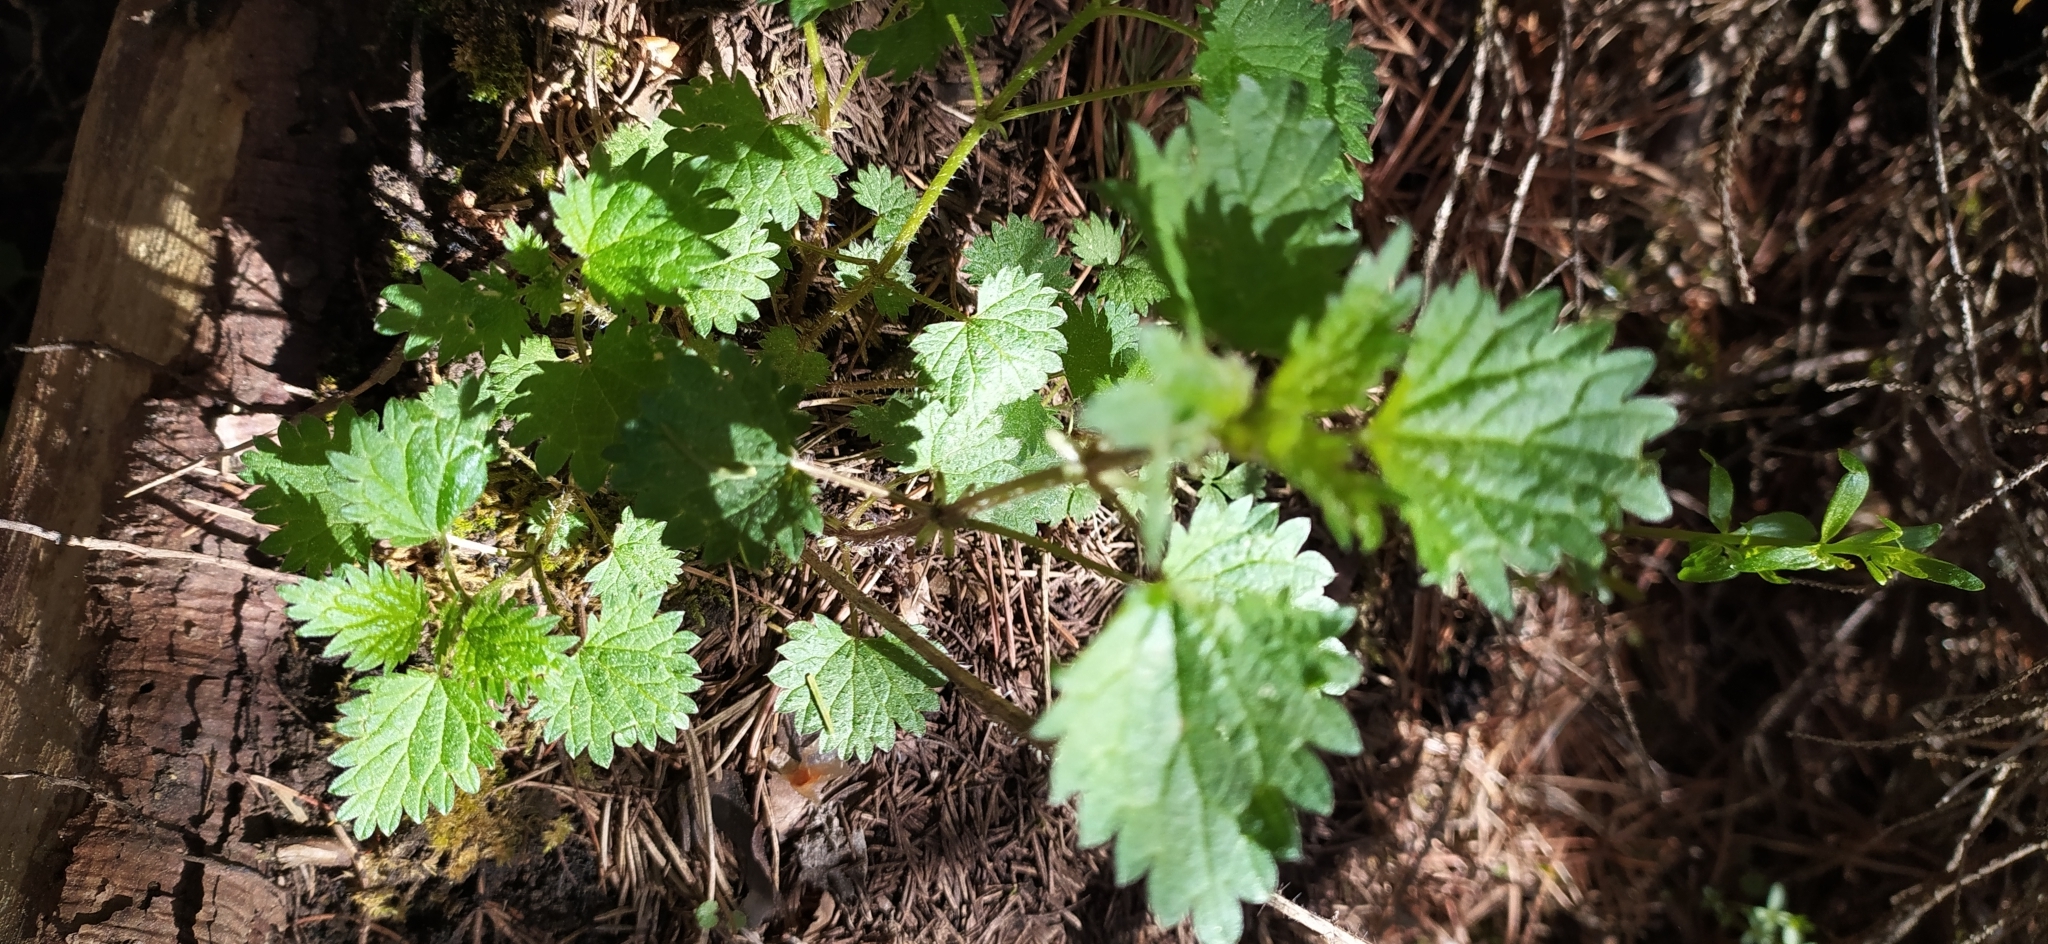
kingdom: Plantae
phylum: Tracheophyta
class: Magnoliopsida
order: Rosales
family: Urticaceae
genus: Urtica
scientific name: Urtica dioica
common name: Common nettle
